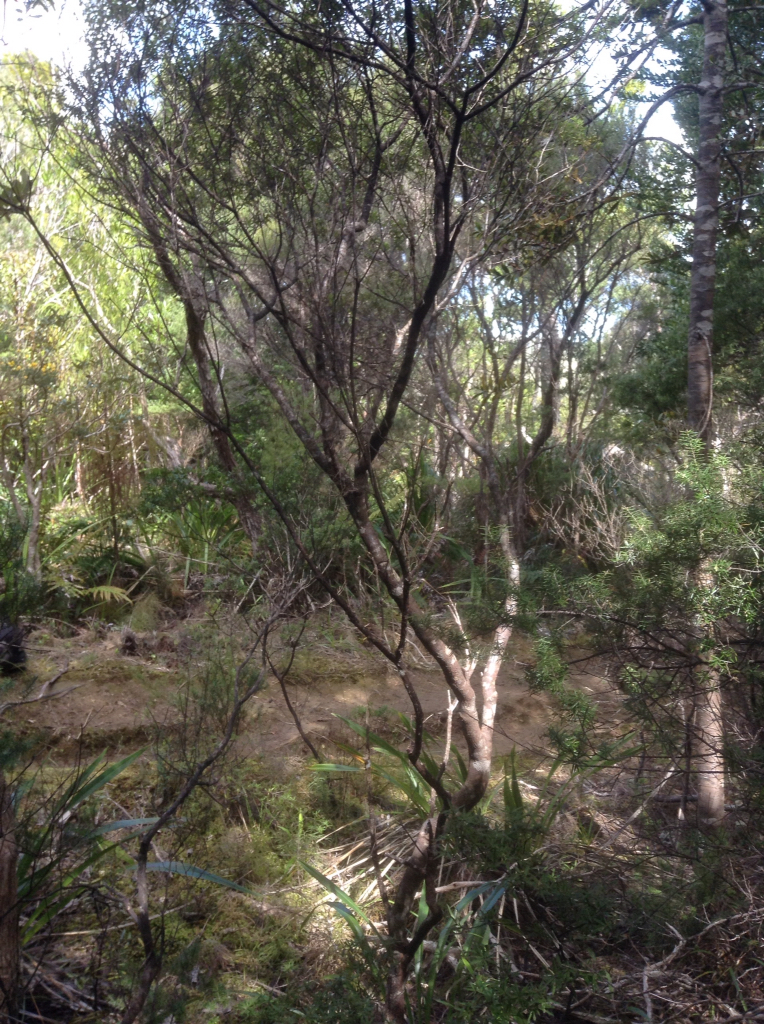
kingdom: Plantae
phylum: Tracheophyta
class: Magnoliopsida
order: Sapindales
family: Rutaceae
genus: Leionema
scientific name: Leionema nudum
